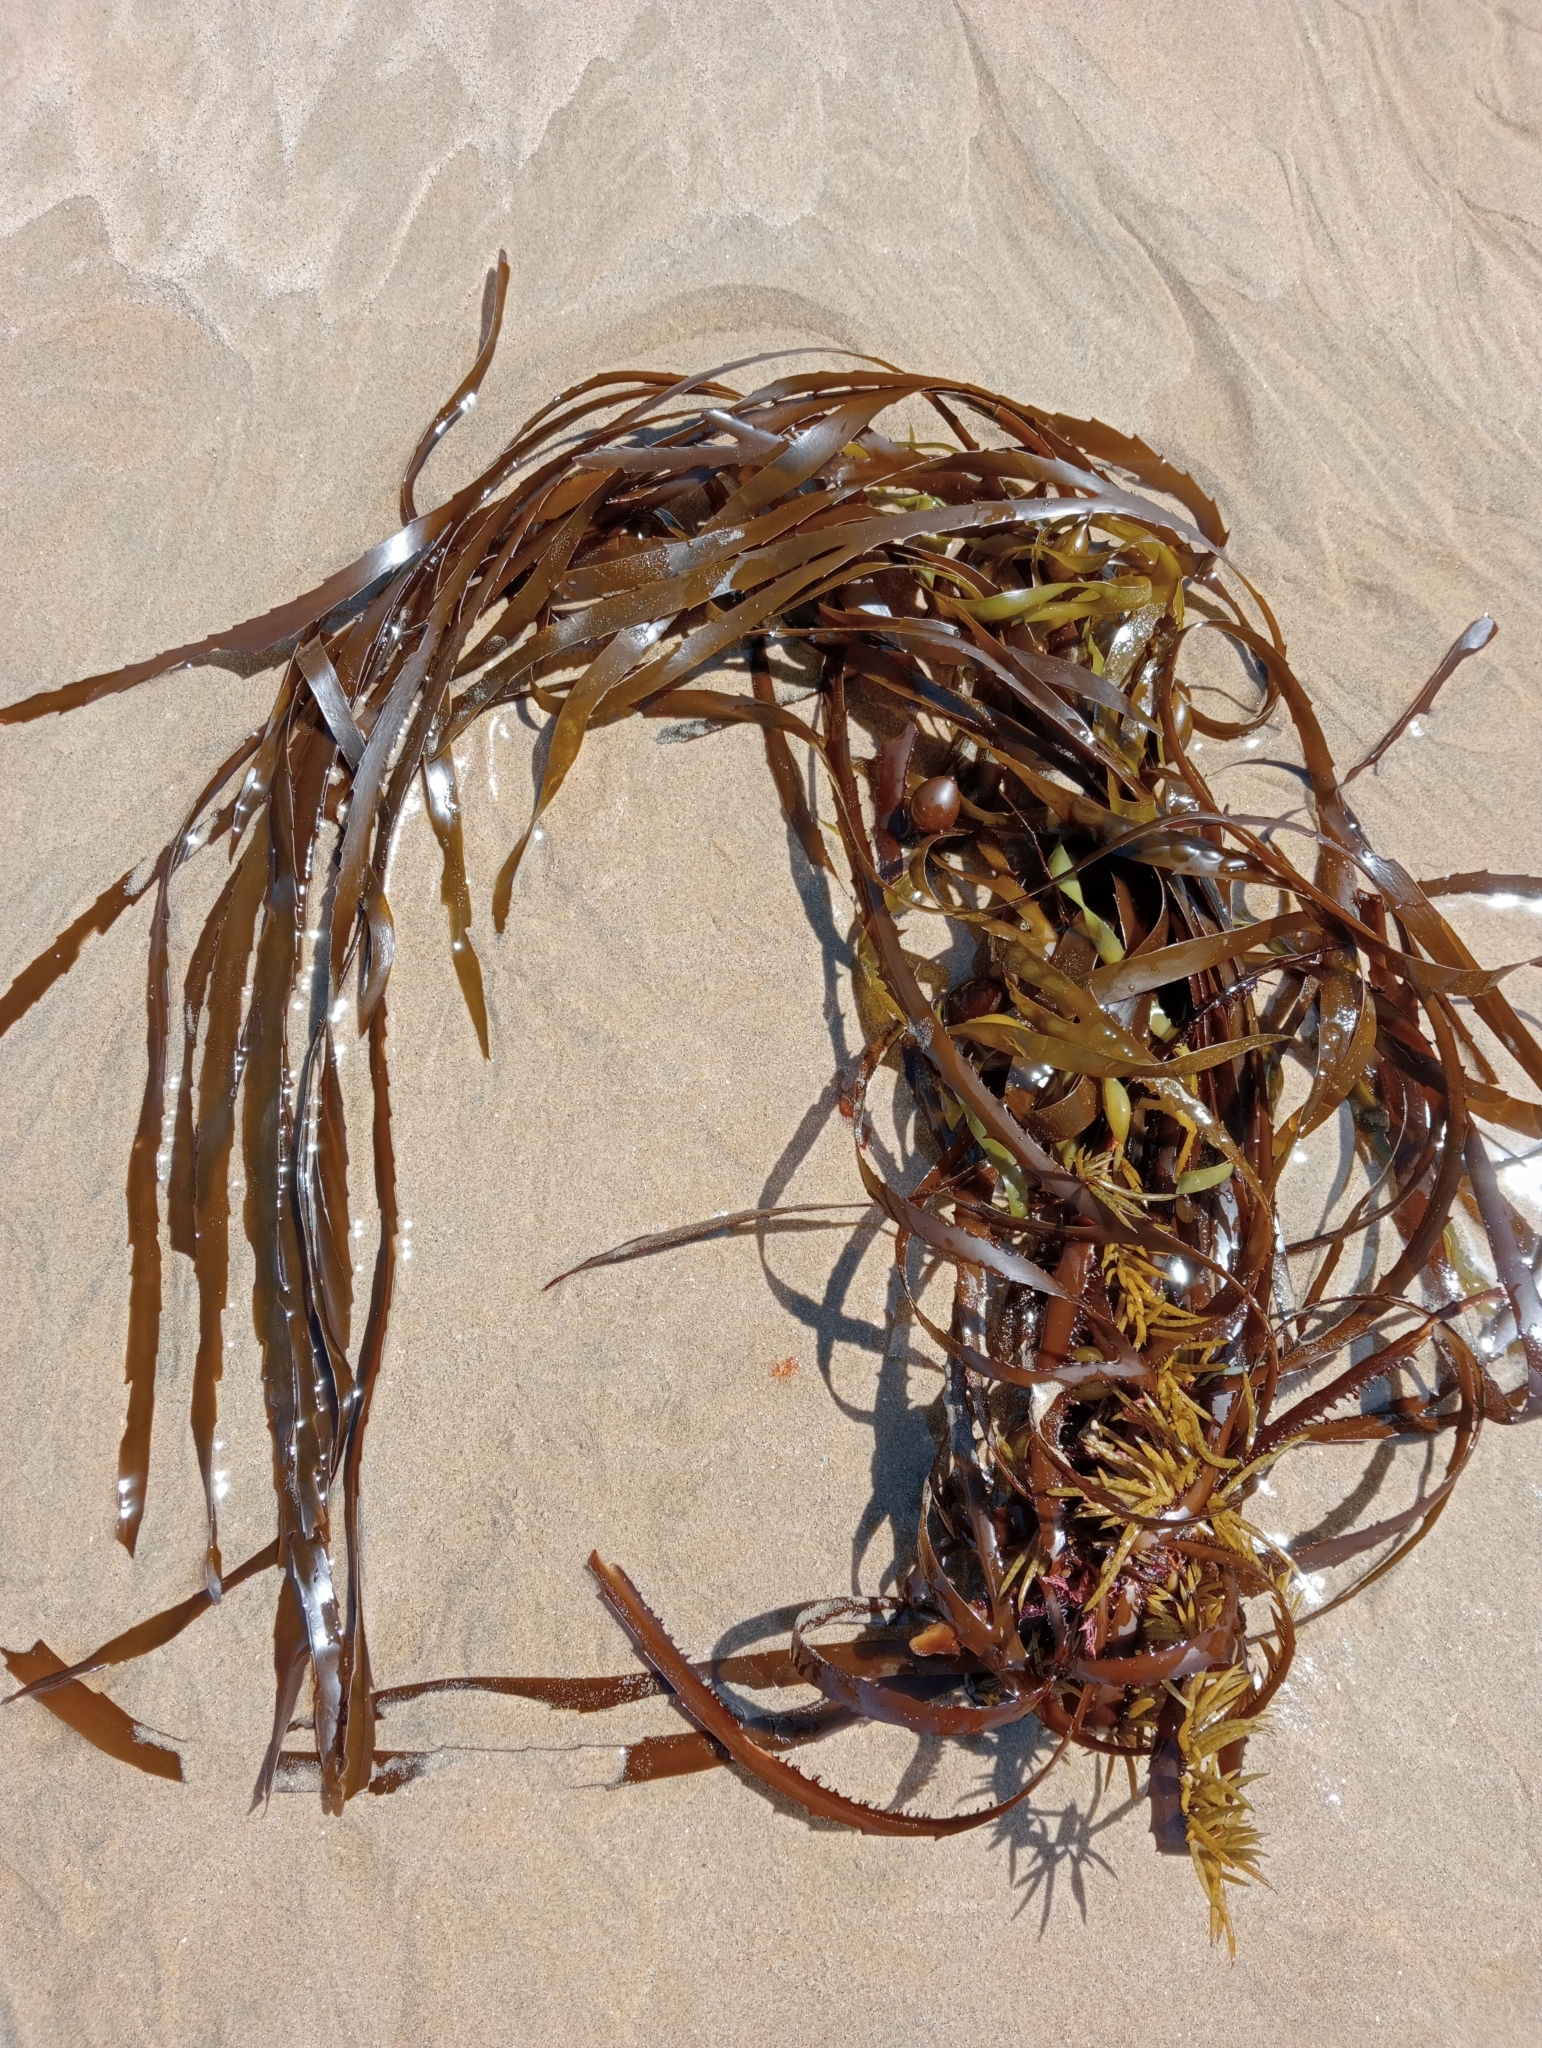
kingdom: Chromista
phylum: Ochrophyta
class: Phaeophyceae
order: Fucales
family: Seirococcaceae
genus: Marginariella
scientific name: Marginariella boryana
